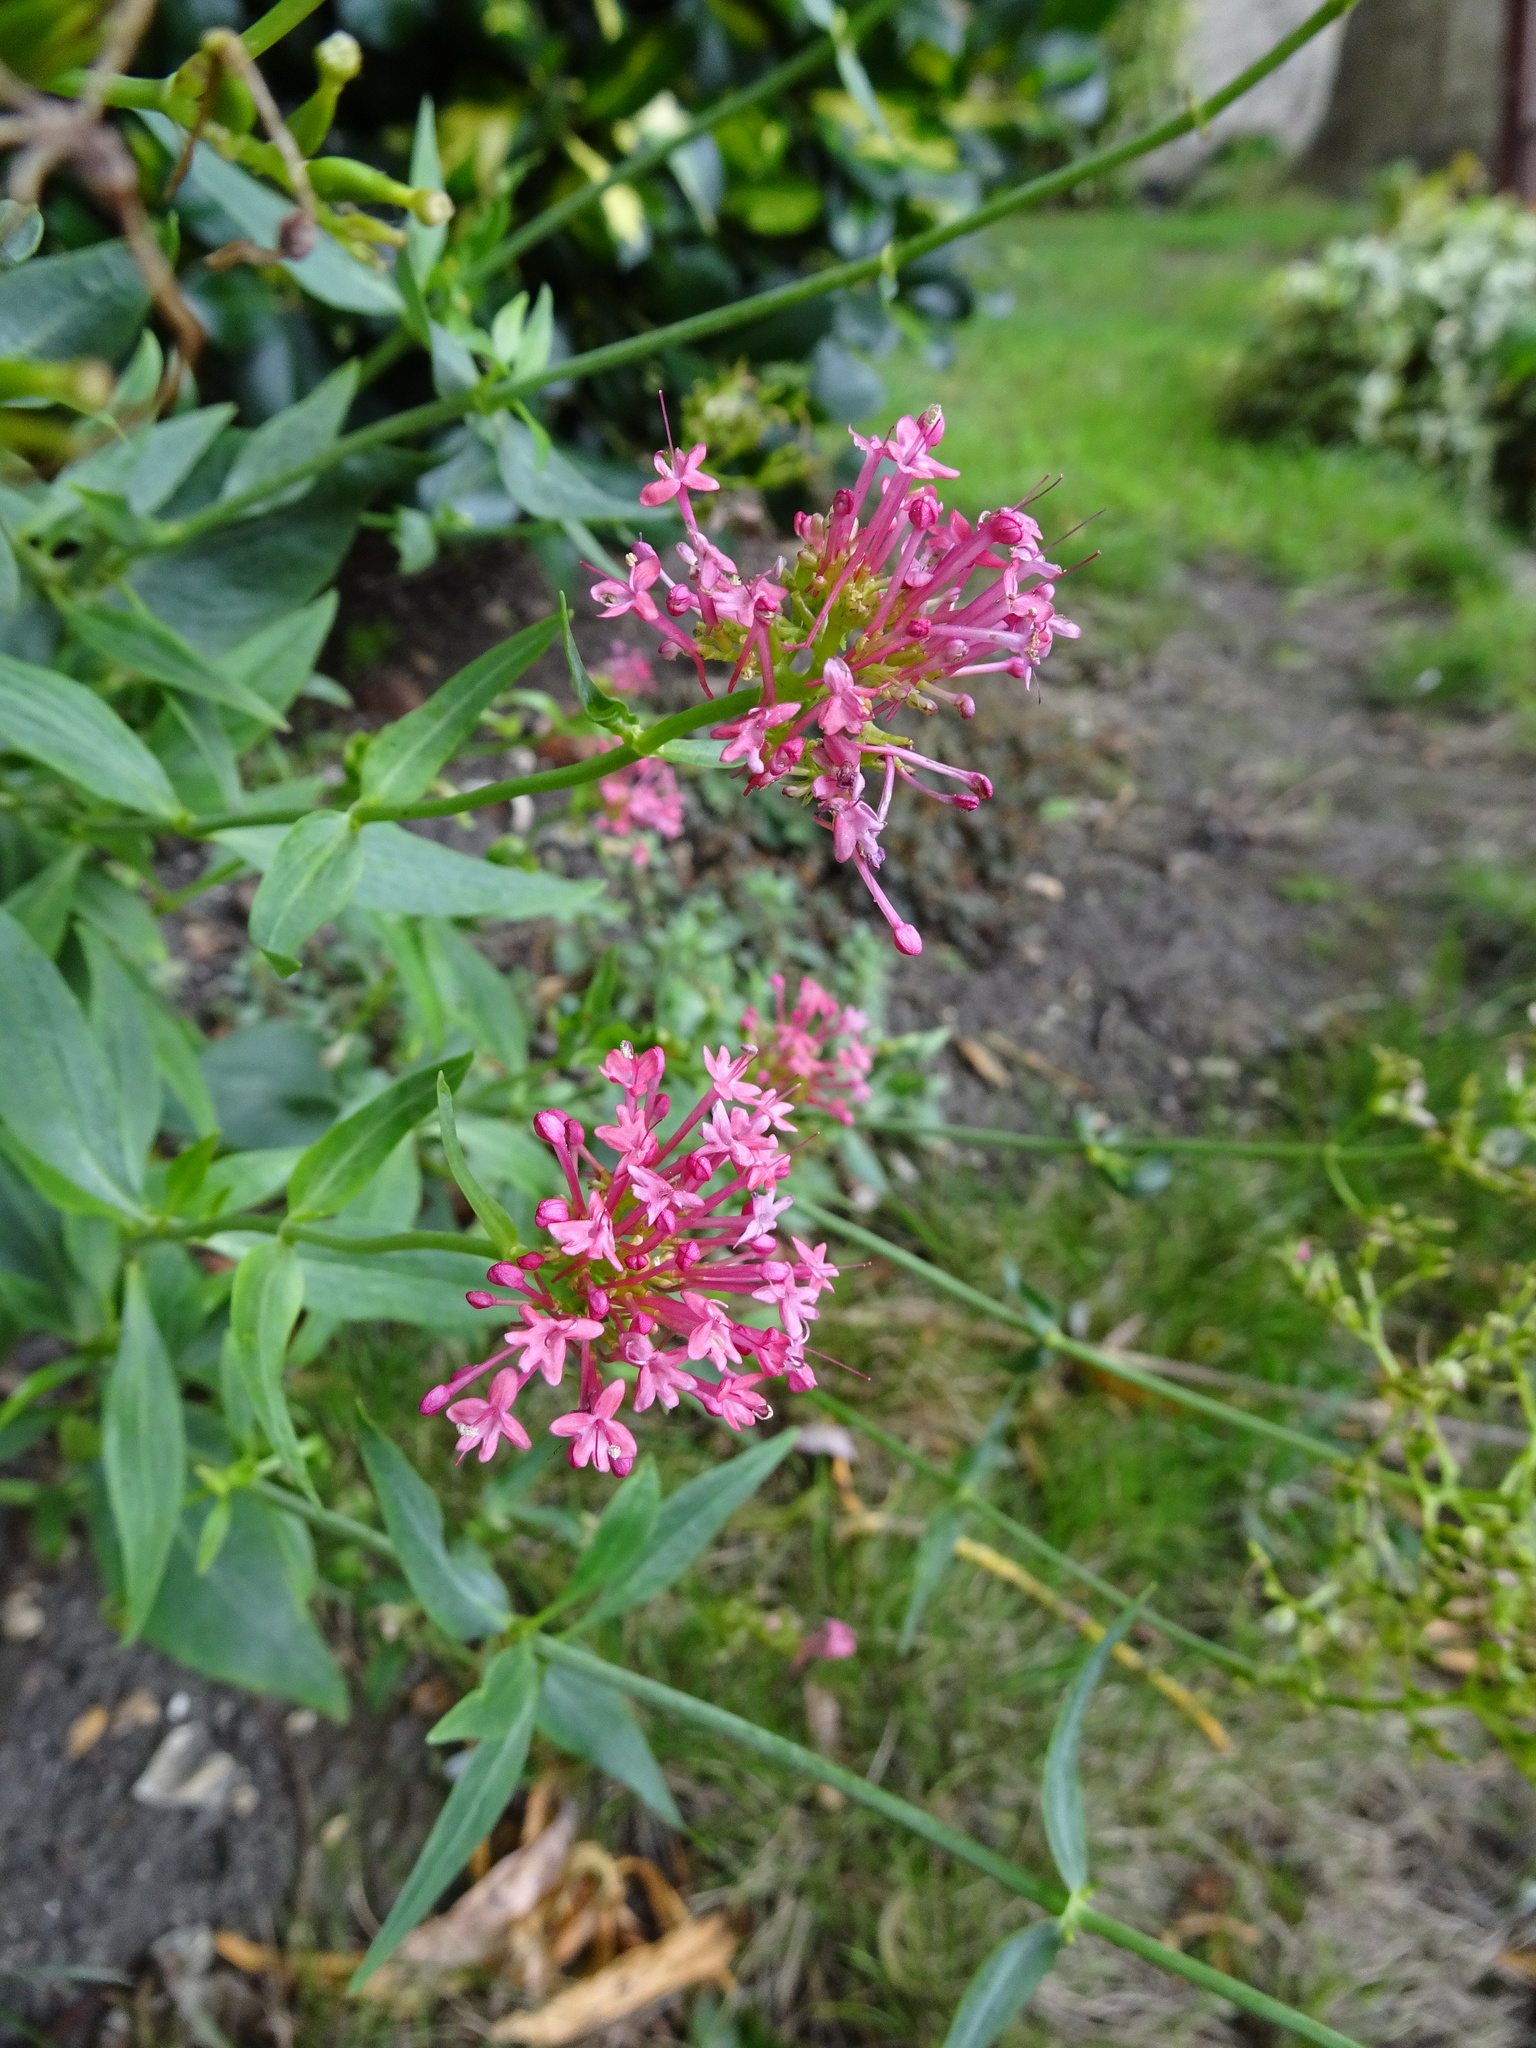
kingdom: Plantae
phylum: Tracheophyta
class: Magnoliopsida
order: Dipsacales
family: Caprifoliaceae
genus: Centranthus
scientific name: Centranthus ruber
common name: Red valerian
